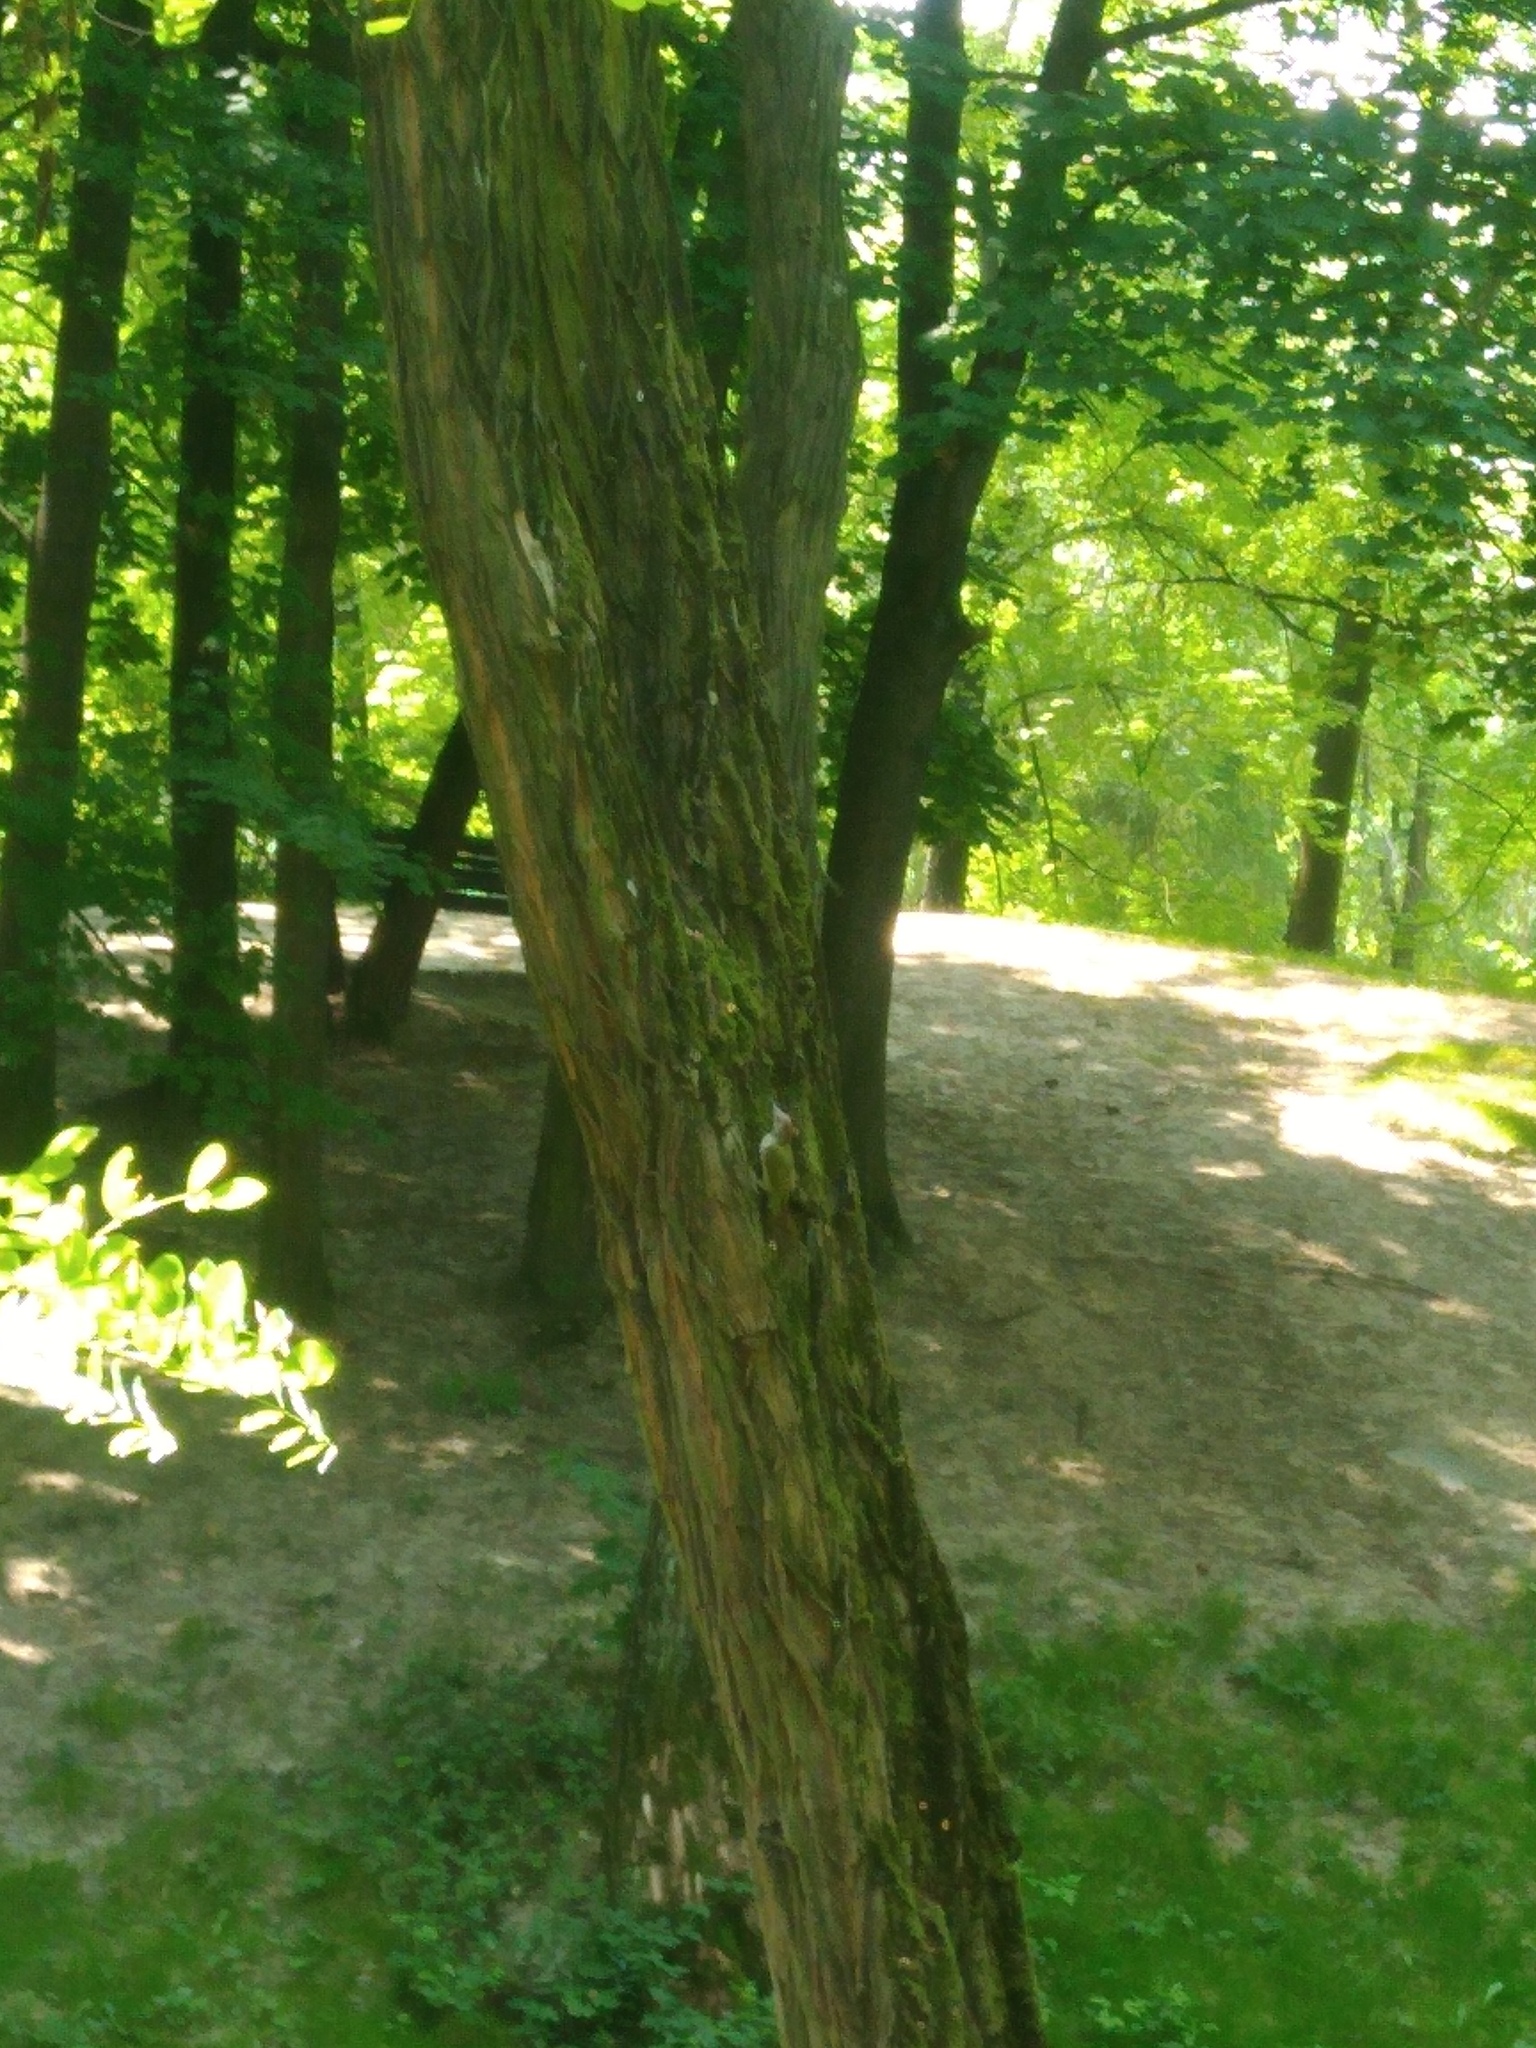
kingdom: Animalia
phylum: Chordata
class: Aves
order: Piciformes
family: Picidae
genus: Picus
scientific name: Picus viridis
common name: European green woodpecker
